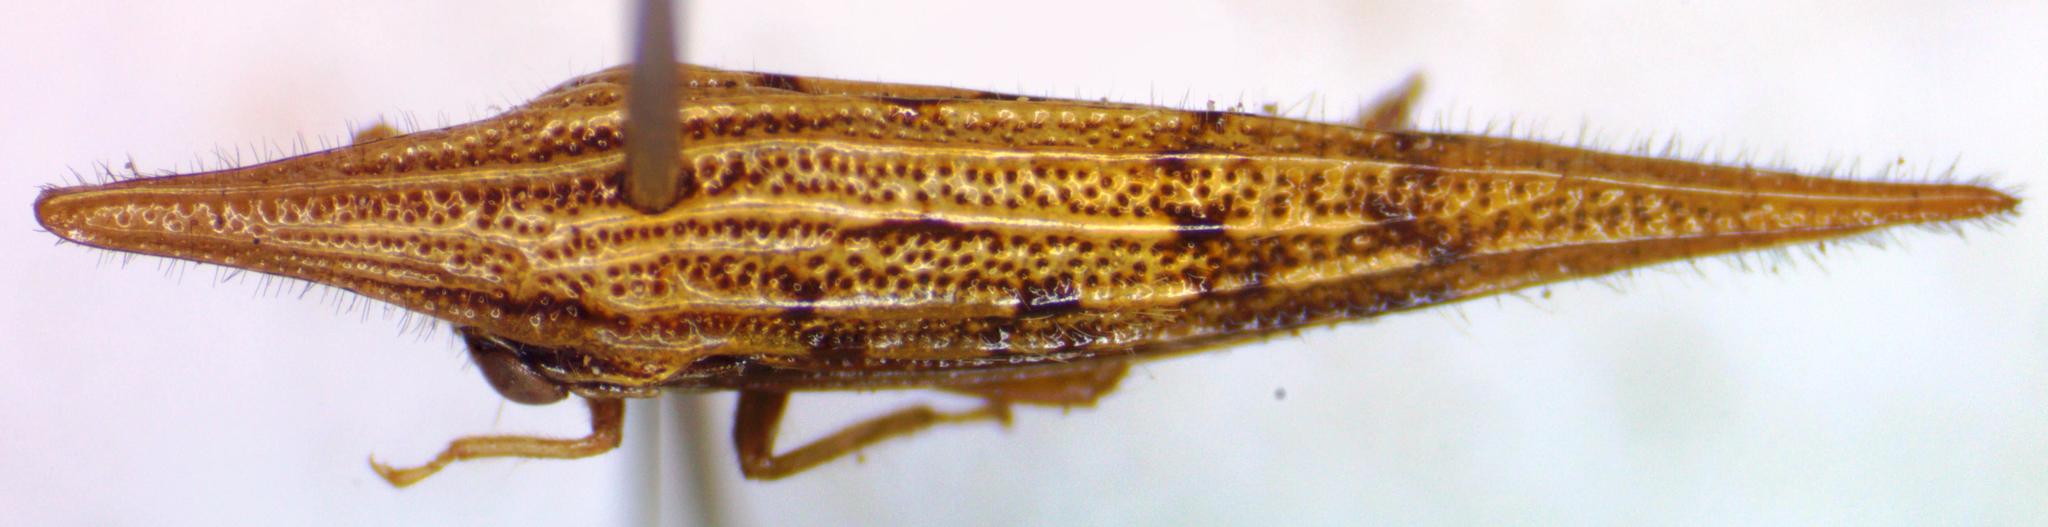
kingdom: Animalia
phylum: Arthropoda
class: Insecta
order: Hemiptera
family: Membracidae
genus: Polyglypta
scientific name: Polyglypta costata
